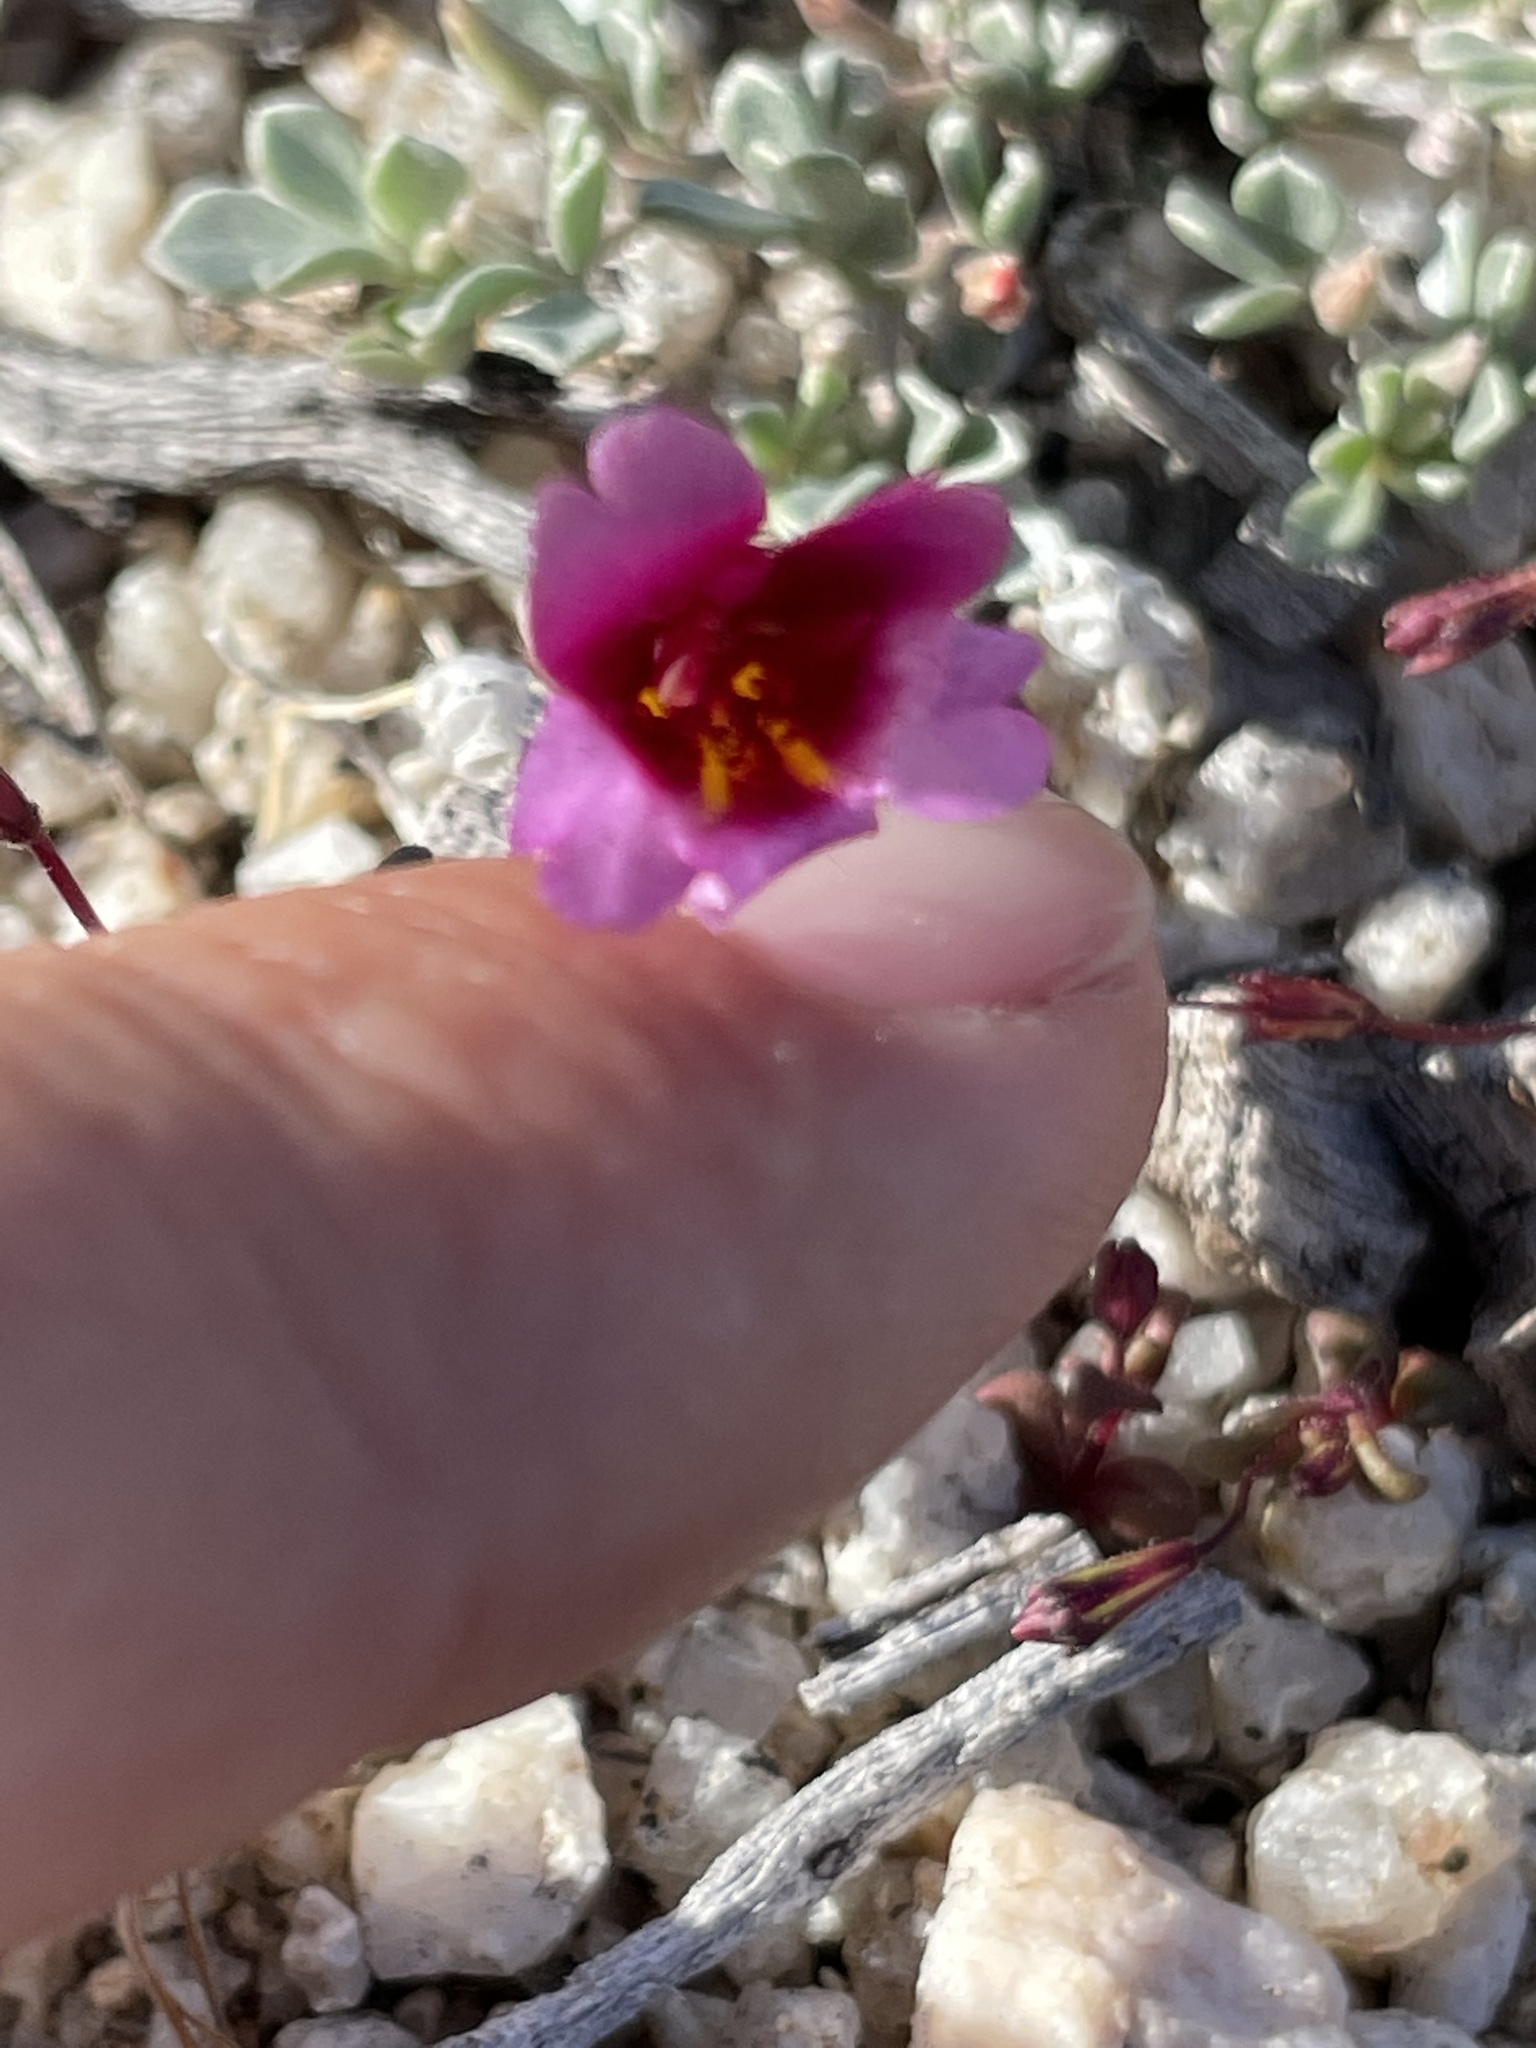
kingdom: Plantae
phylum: Tracheophyta
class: Magnoliopsida
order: Lamiales
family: Phrymaceae
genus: Erythranthe
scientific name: Erythranthe purpurea
